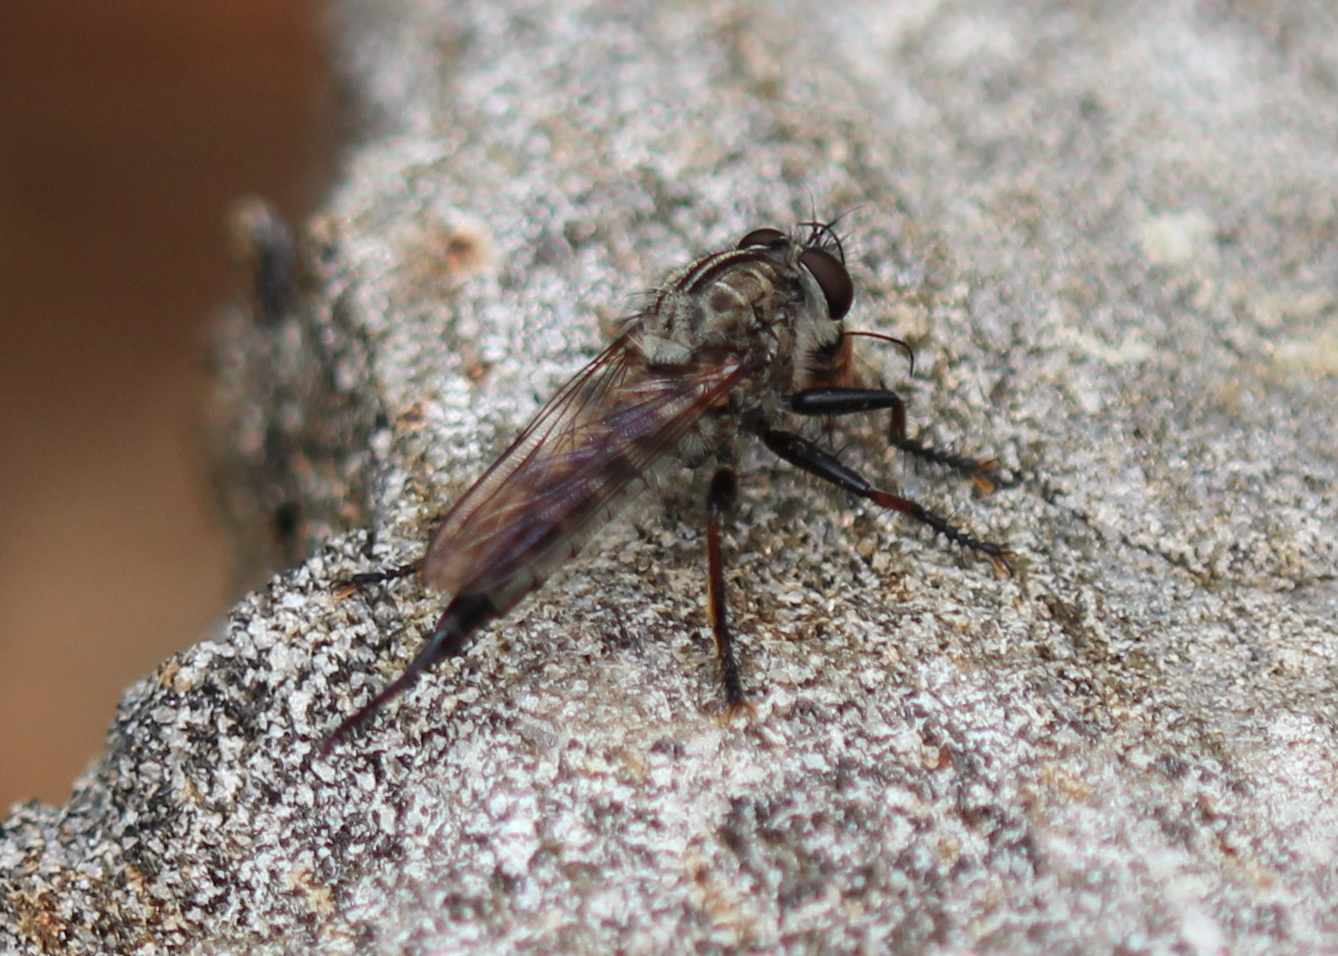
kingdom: Animalia
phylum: Arthropoda
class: Insecta
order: Diptera
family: Asilidae
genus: Efferia
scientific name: Efferia aestuans
